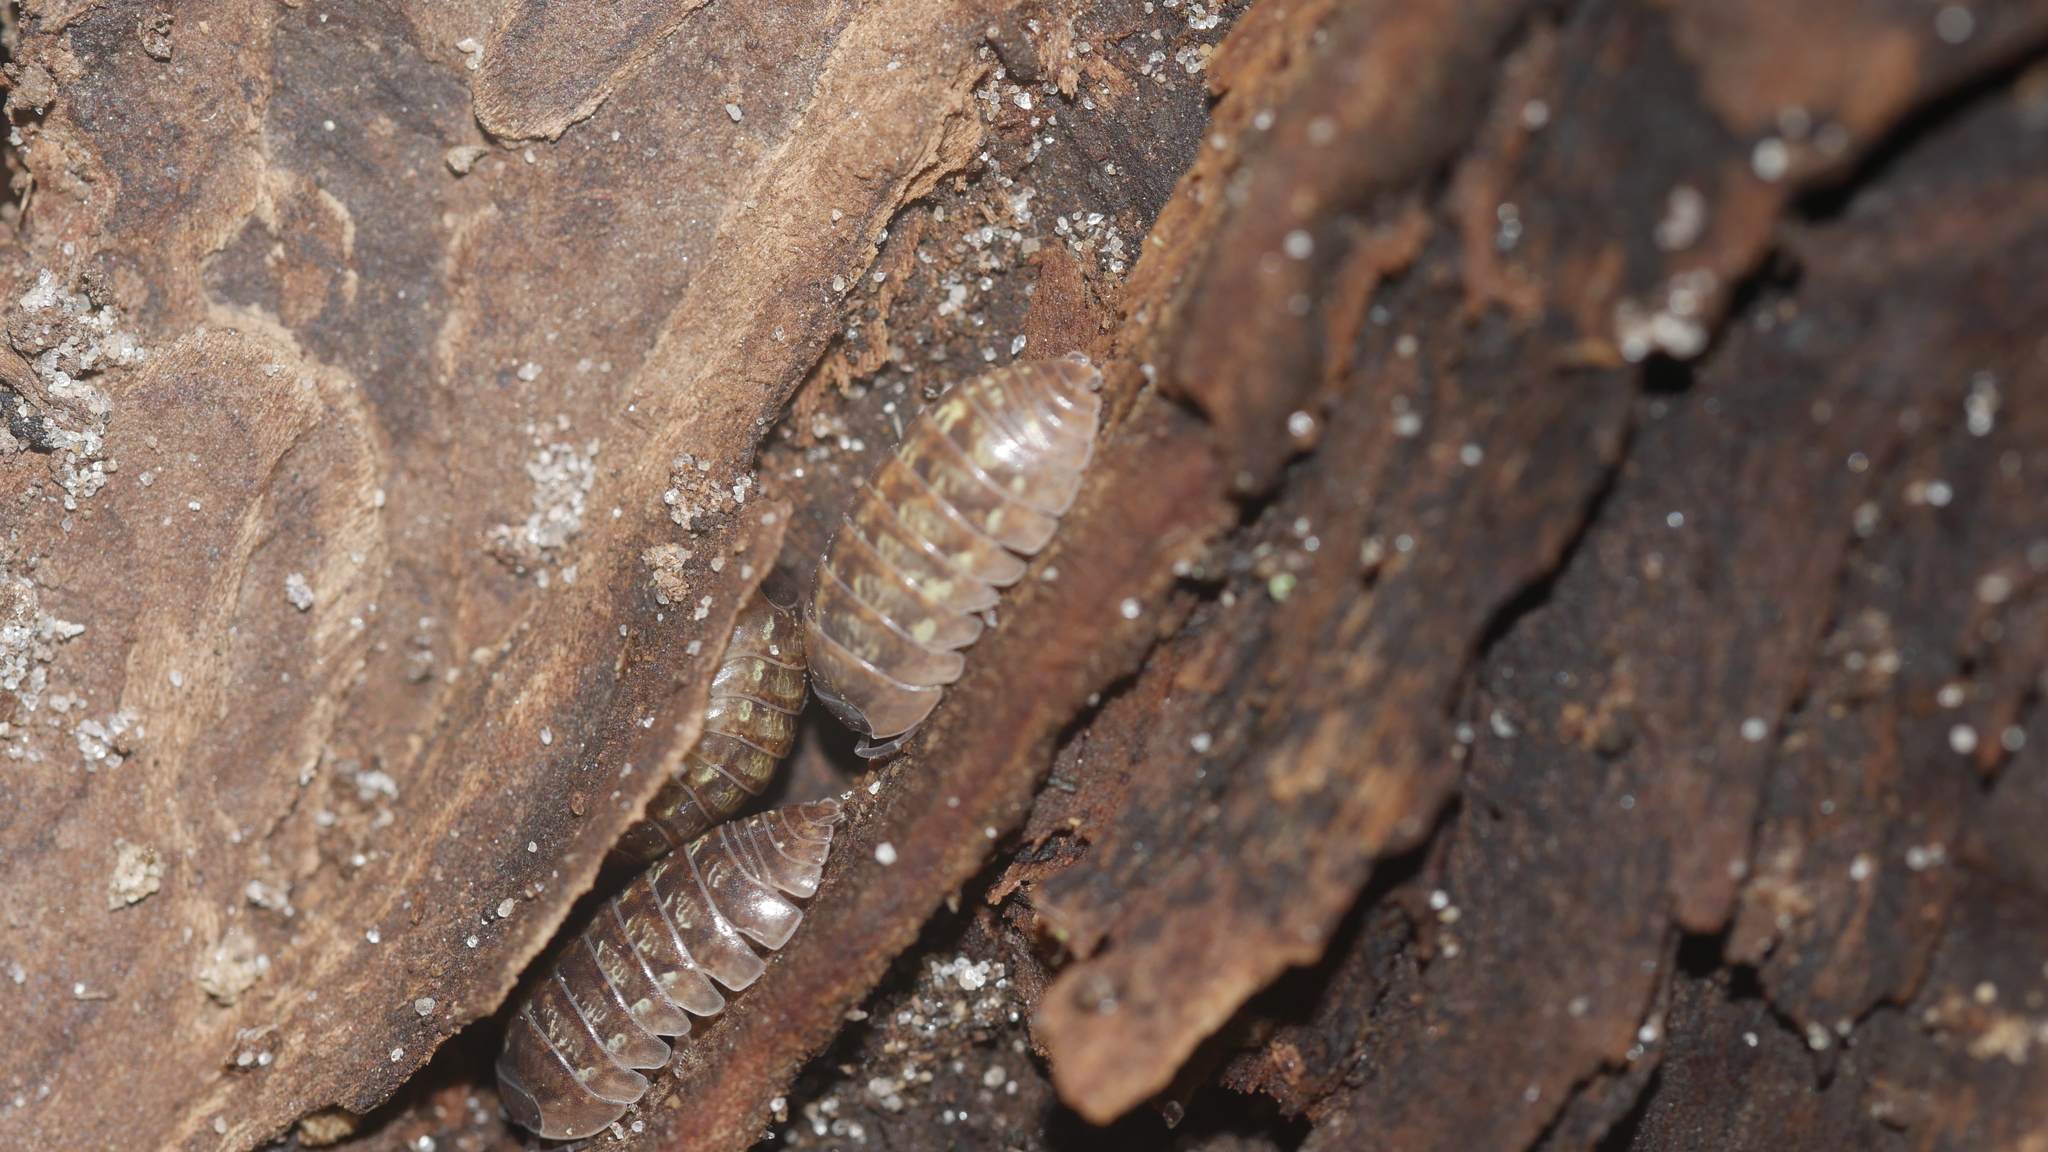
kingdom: Animalia
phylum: Arthropoda
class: Malacostraca
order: Isopoda
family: Armadillidiidae
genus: Armadillidium
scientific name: Armadillidium vulgare
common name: Common pill woodlouse
